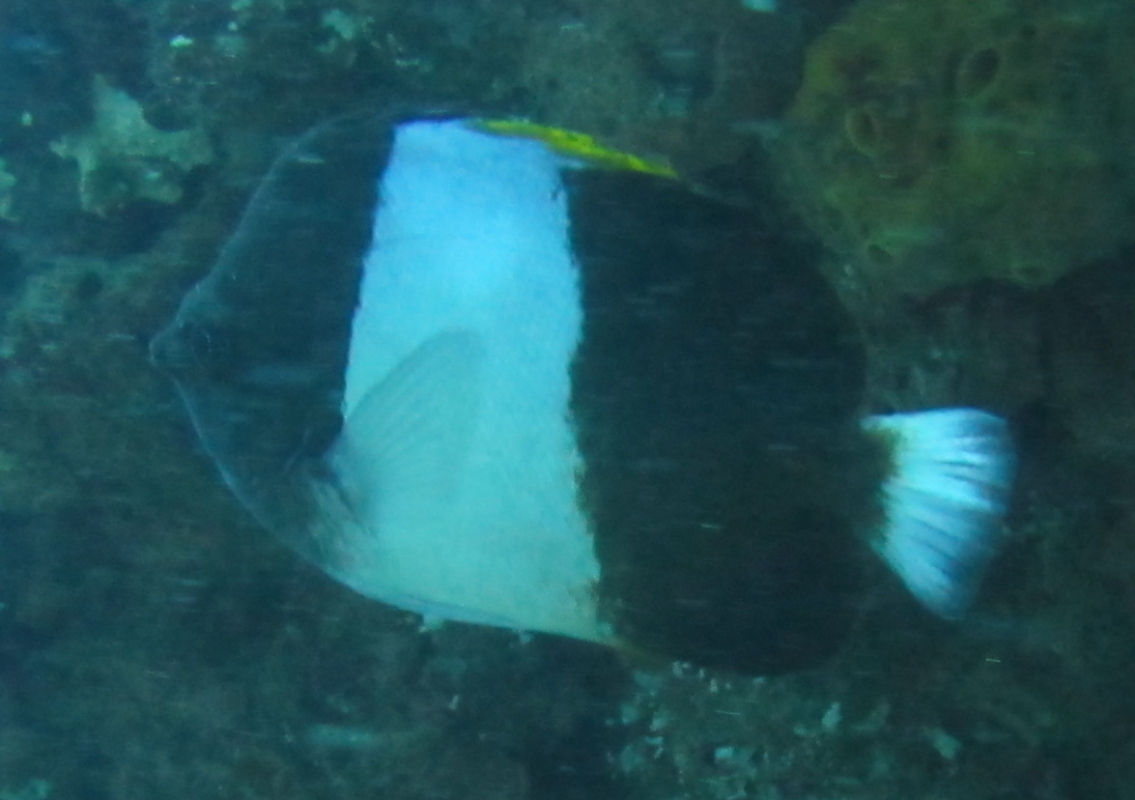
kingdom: Animalia
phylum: Chordata
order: Perciformes
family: Chaetodontidae
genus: Hemitaurichthys
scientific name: Hemitaurichthys zoster
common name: Brown-and-white butterflyfish
